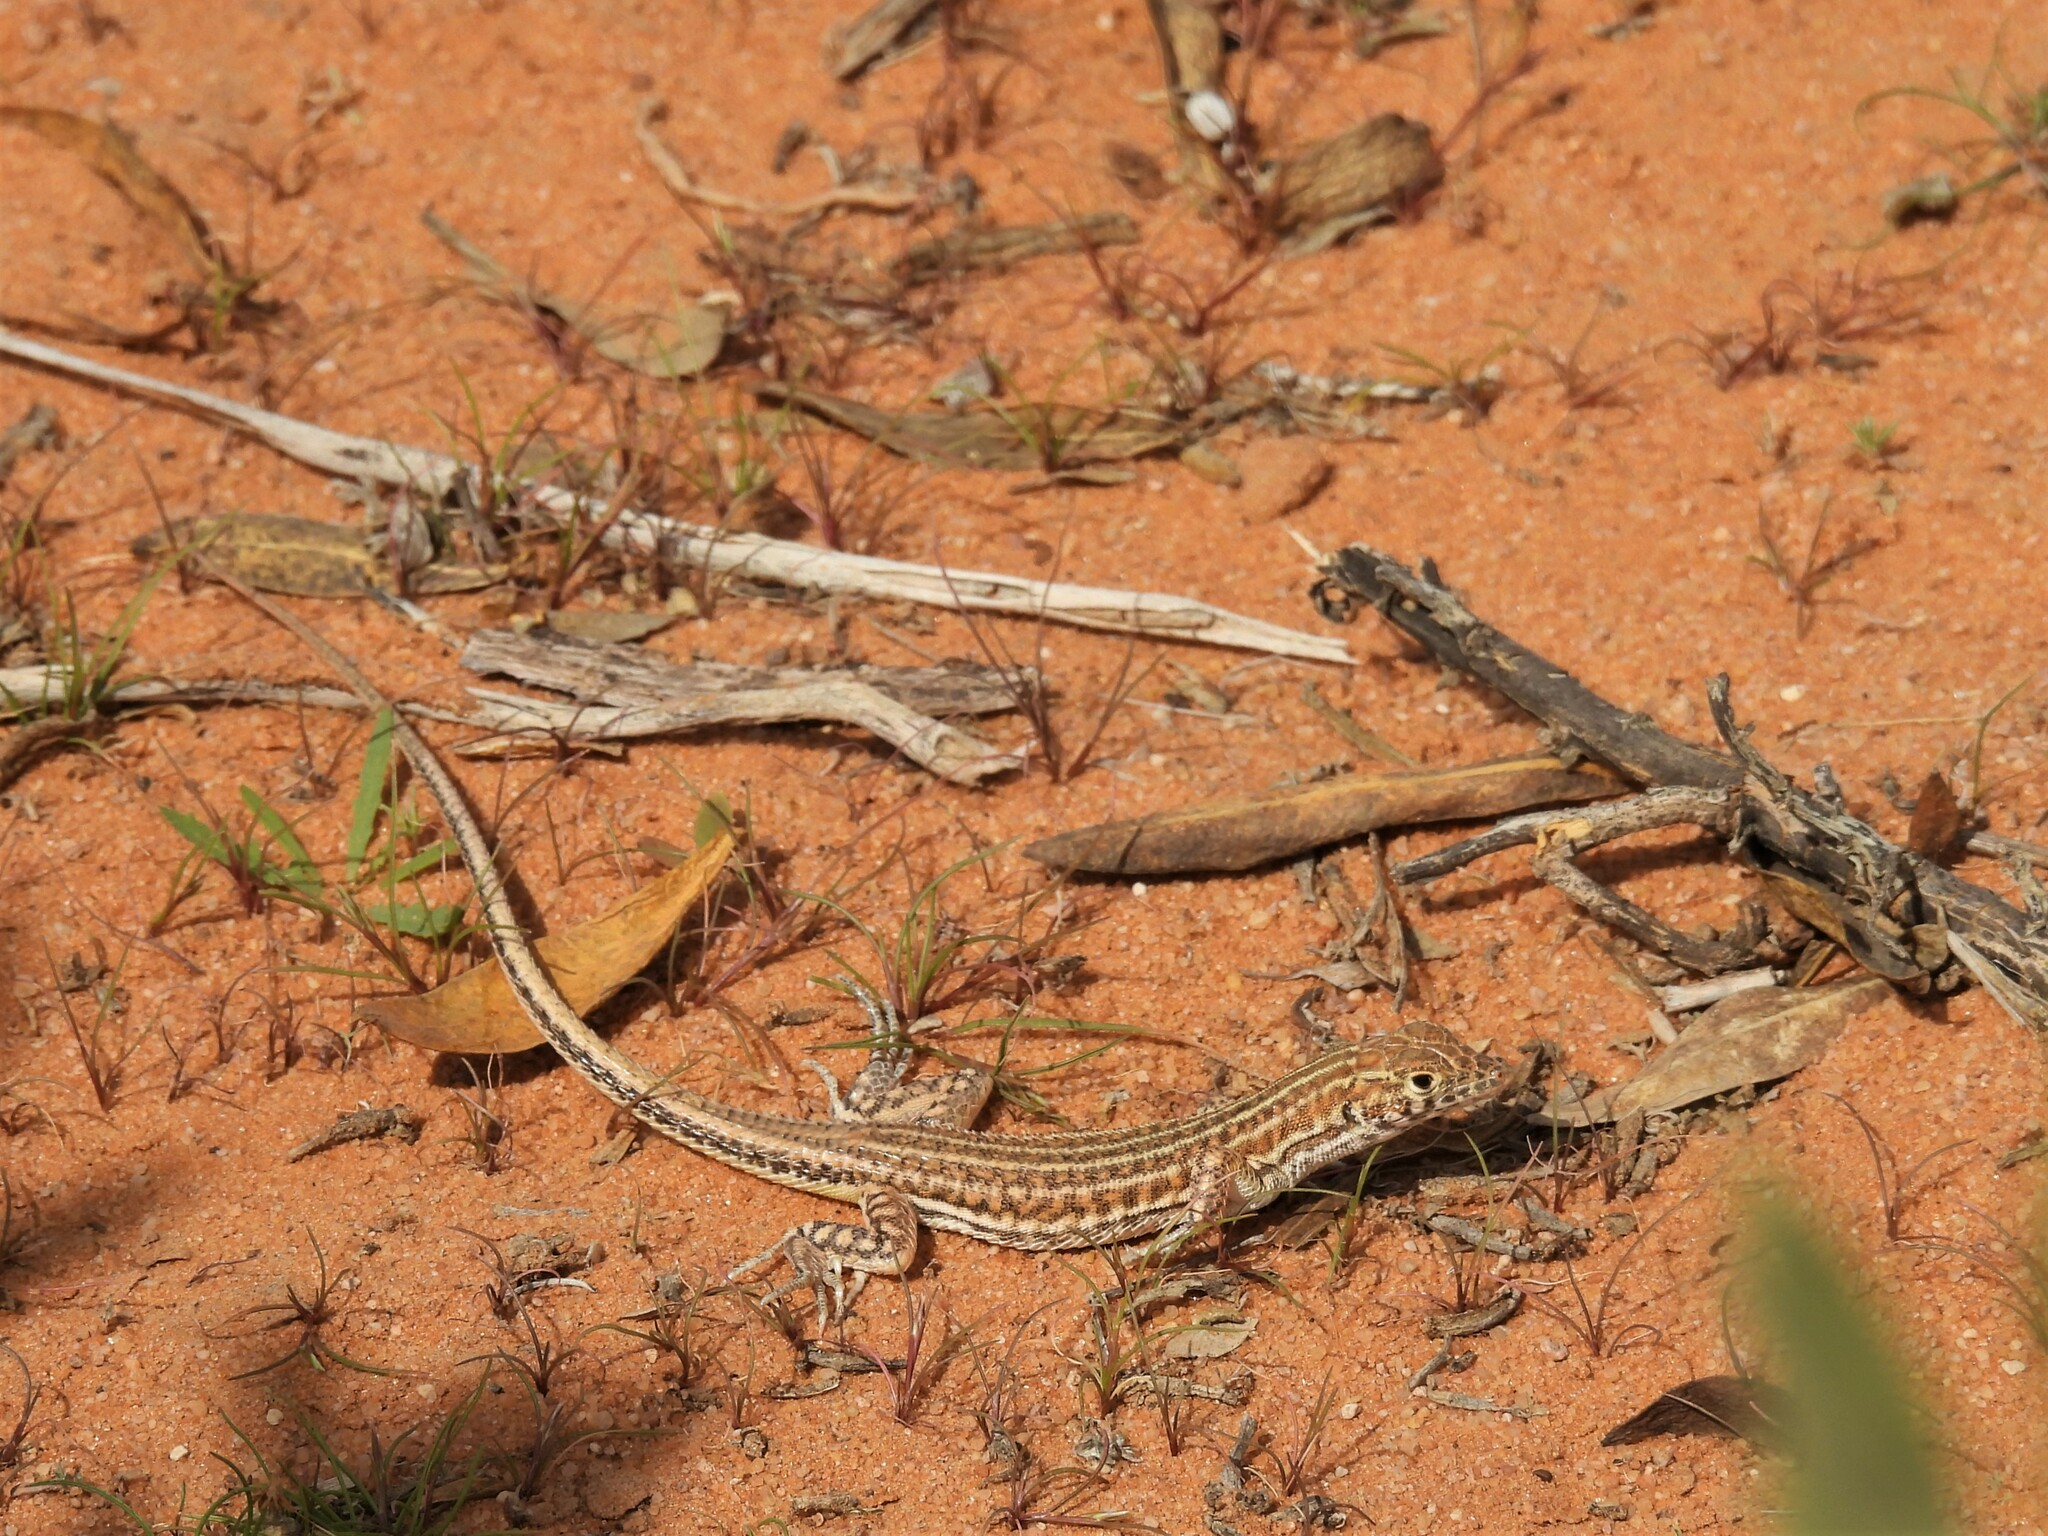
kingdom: Animalia
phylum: Chordata
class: Squamata
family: Lacertidae
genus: Acanthodactylus
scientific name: Acanthodactylus opheodurus
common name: Arnold's fringe-fingered lizard
